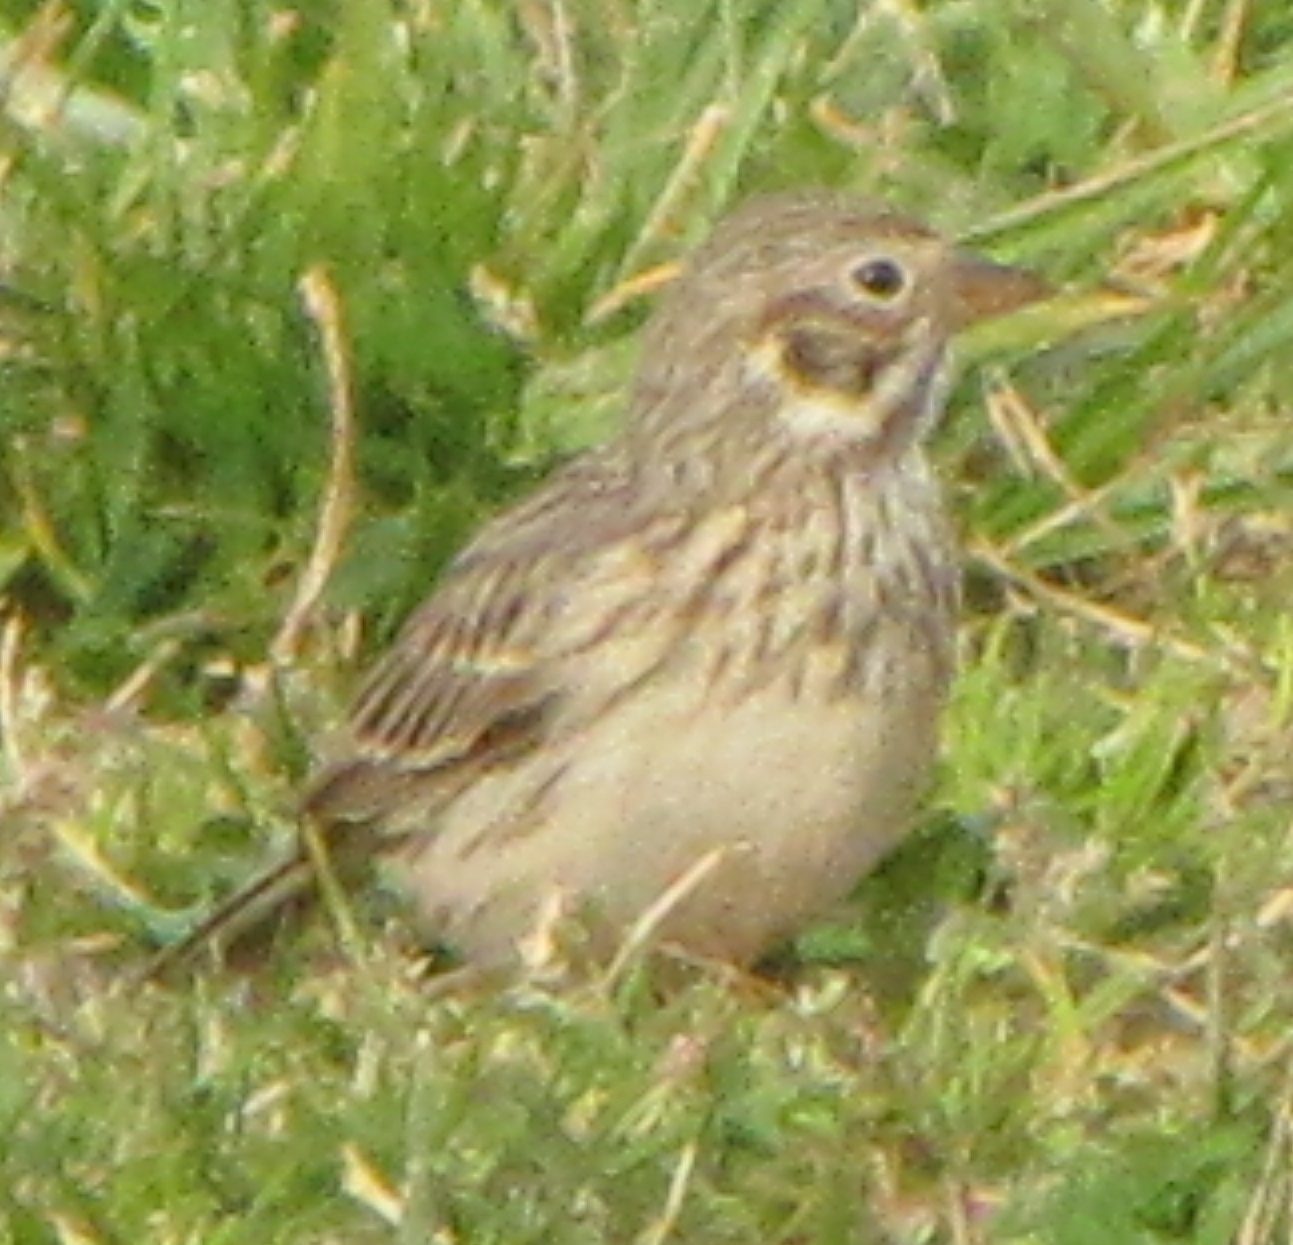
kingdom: Animalia
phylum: Chordata
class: Aves
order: Passeriformes
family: Passerellidae
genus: Pooecetes
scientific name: Pooecetes gramineus
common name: Vesper sparrow
